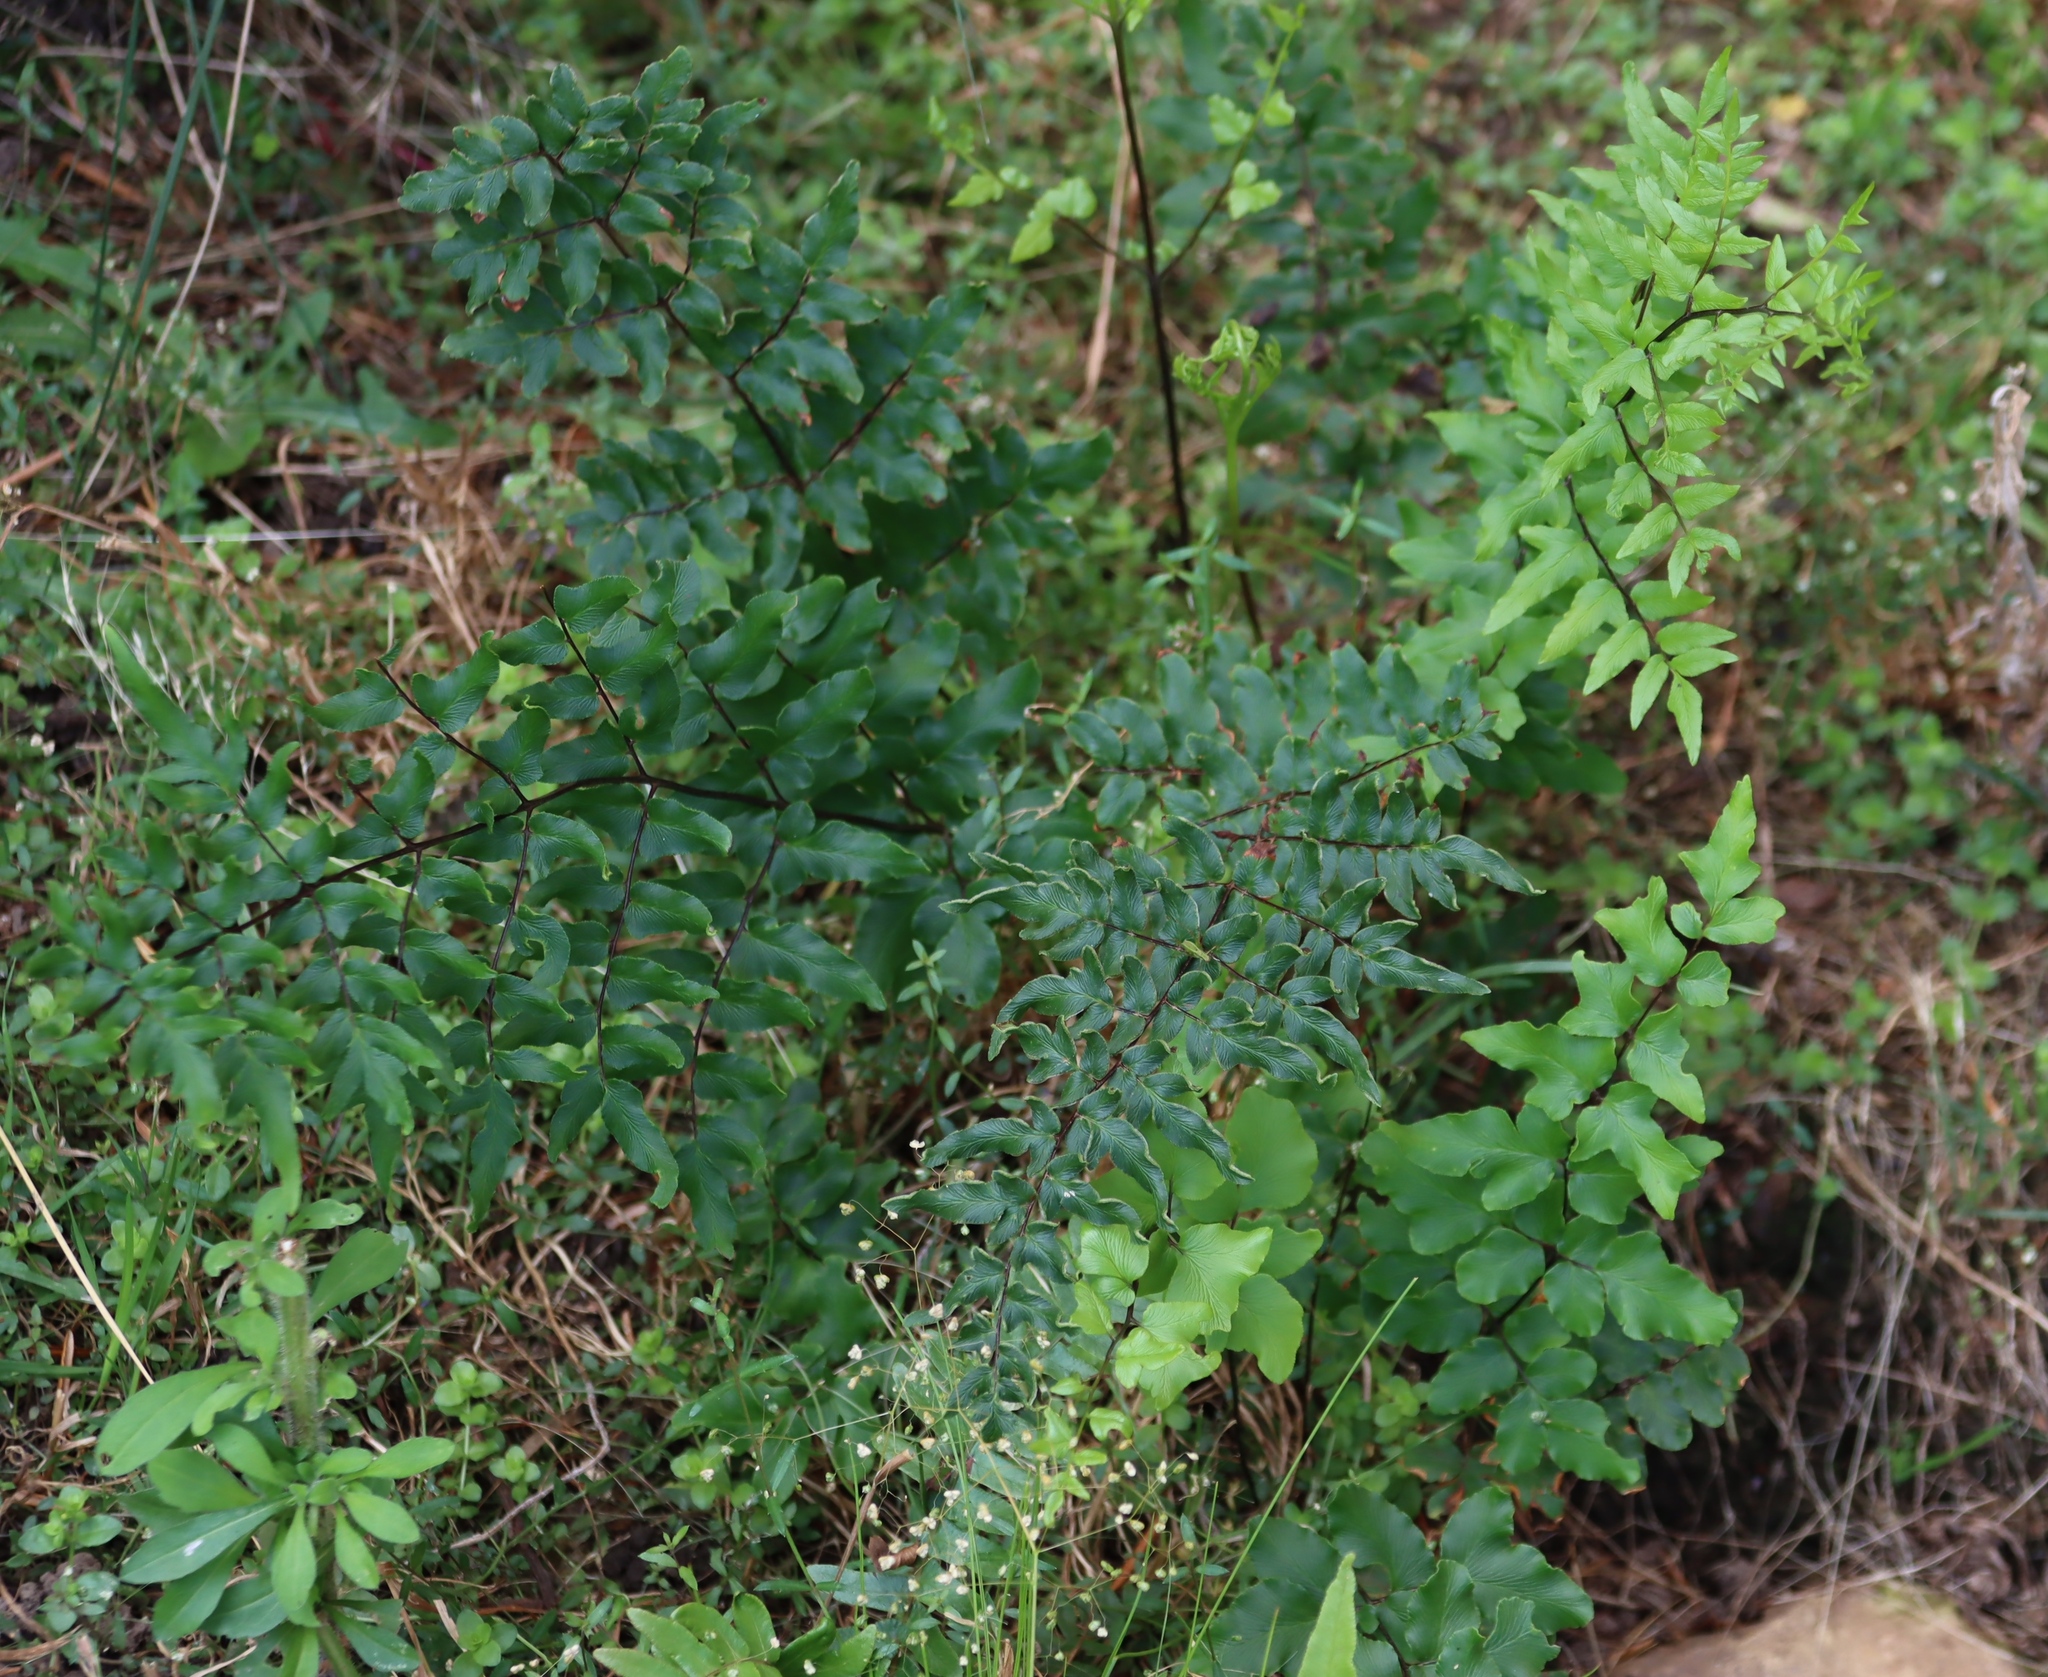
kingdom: Plantae
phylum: Tracheophyta
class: Polypodiopsida
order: Polypodiales
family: Pteridaceae
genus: Cheilanthes
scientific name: Cheilanthes viridis
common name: Green cliffbrake
